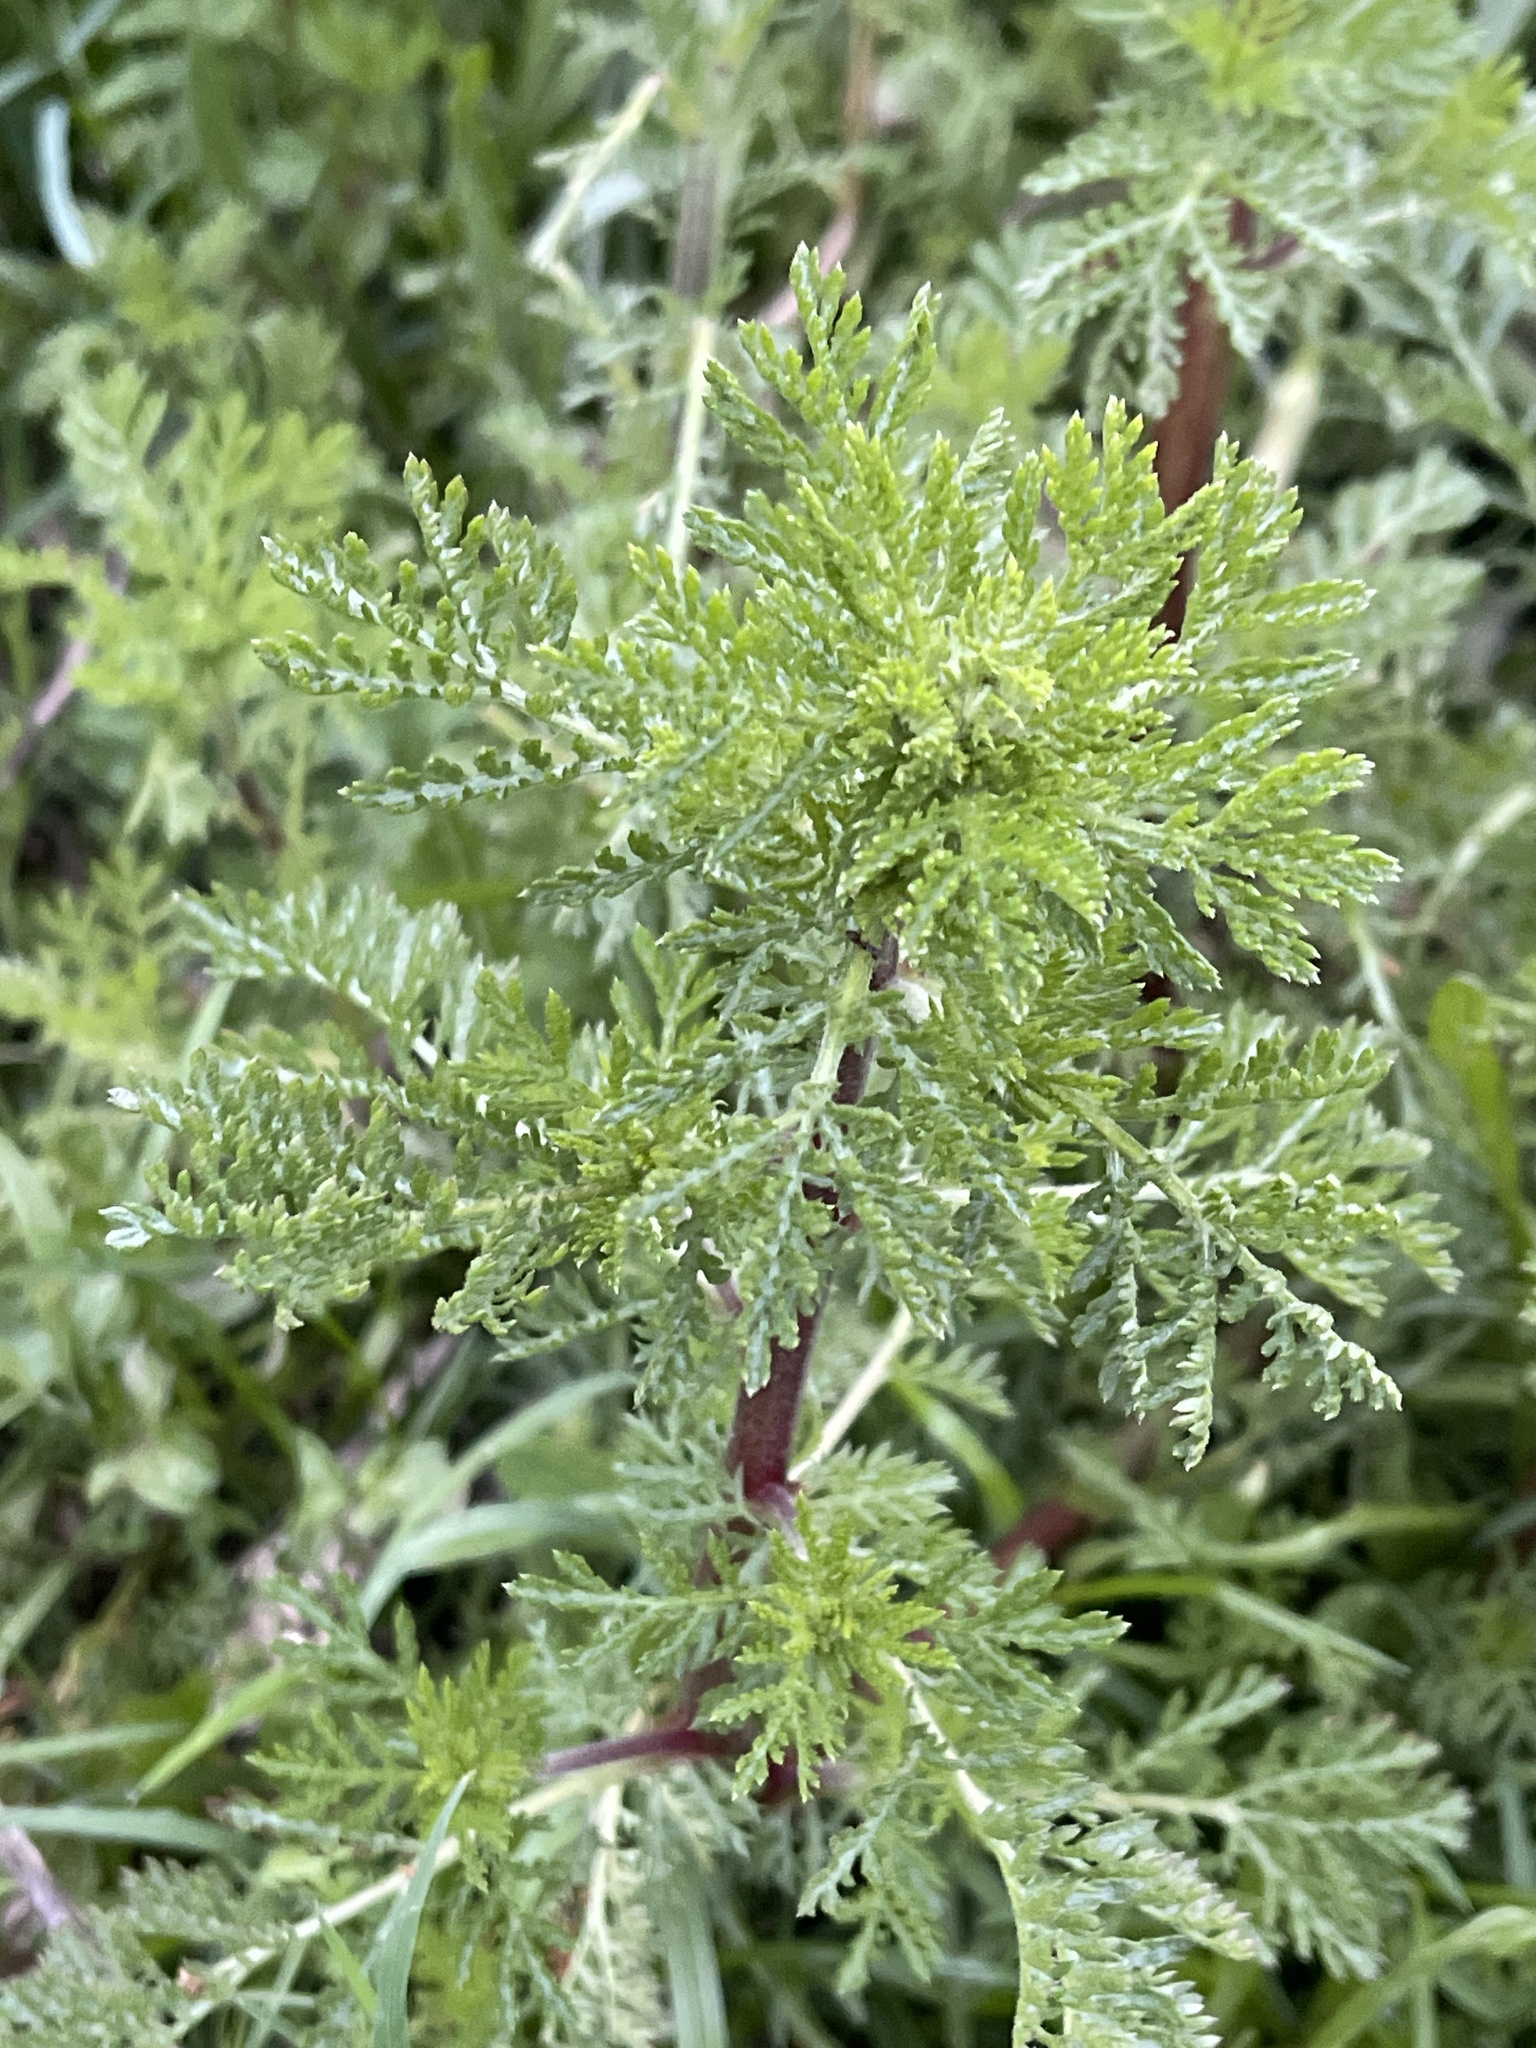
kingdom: Plantae
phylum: Tracheophyta
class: Magnoliopsida
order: Asterales
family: Asteraceae
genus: Cota
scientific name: Cota austriaca
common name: Austrian chamomile
